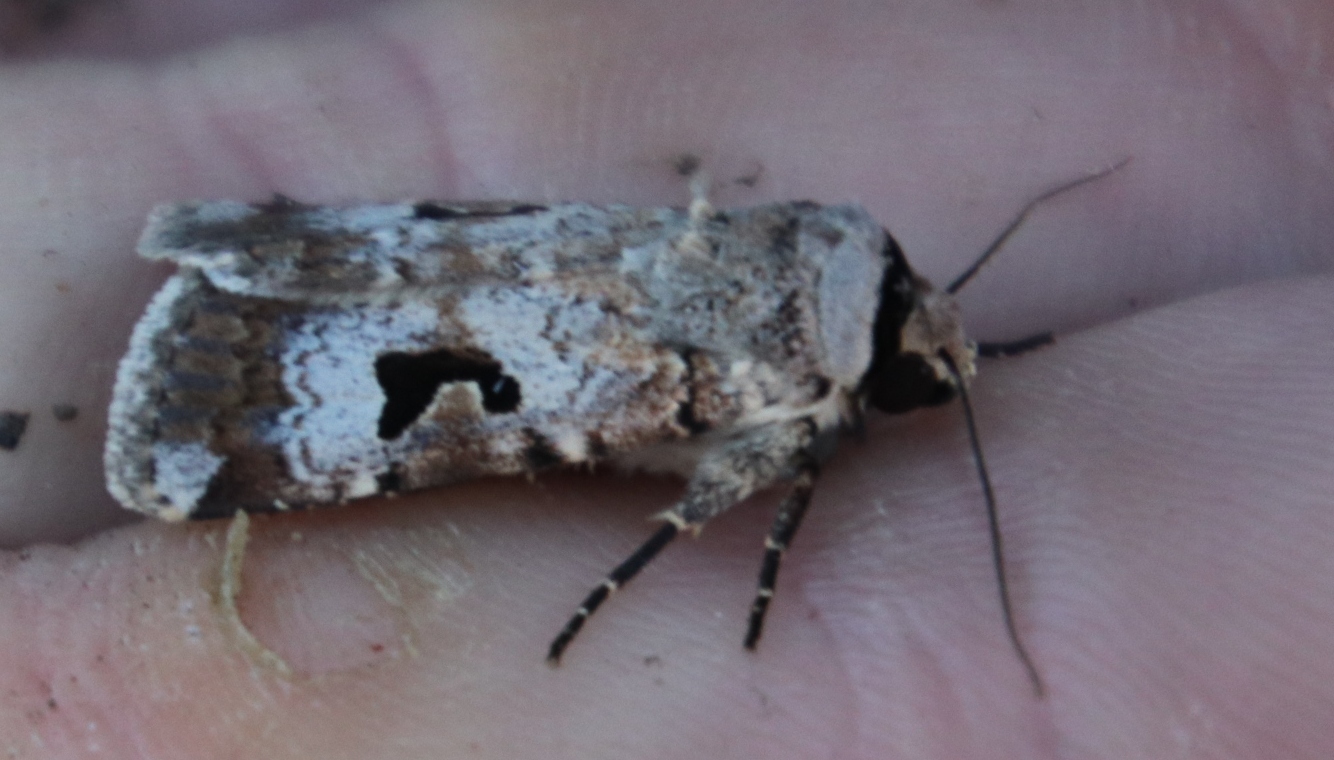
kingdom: Animalia
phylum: Arthropoda
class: Insecta
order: Lepidoptera
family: Noctuidae
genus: Spodoptera
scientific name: Spodoptera abyssinia
